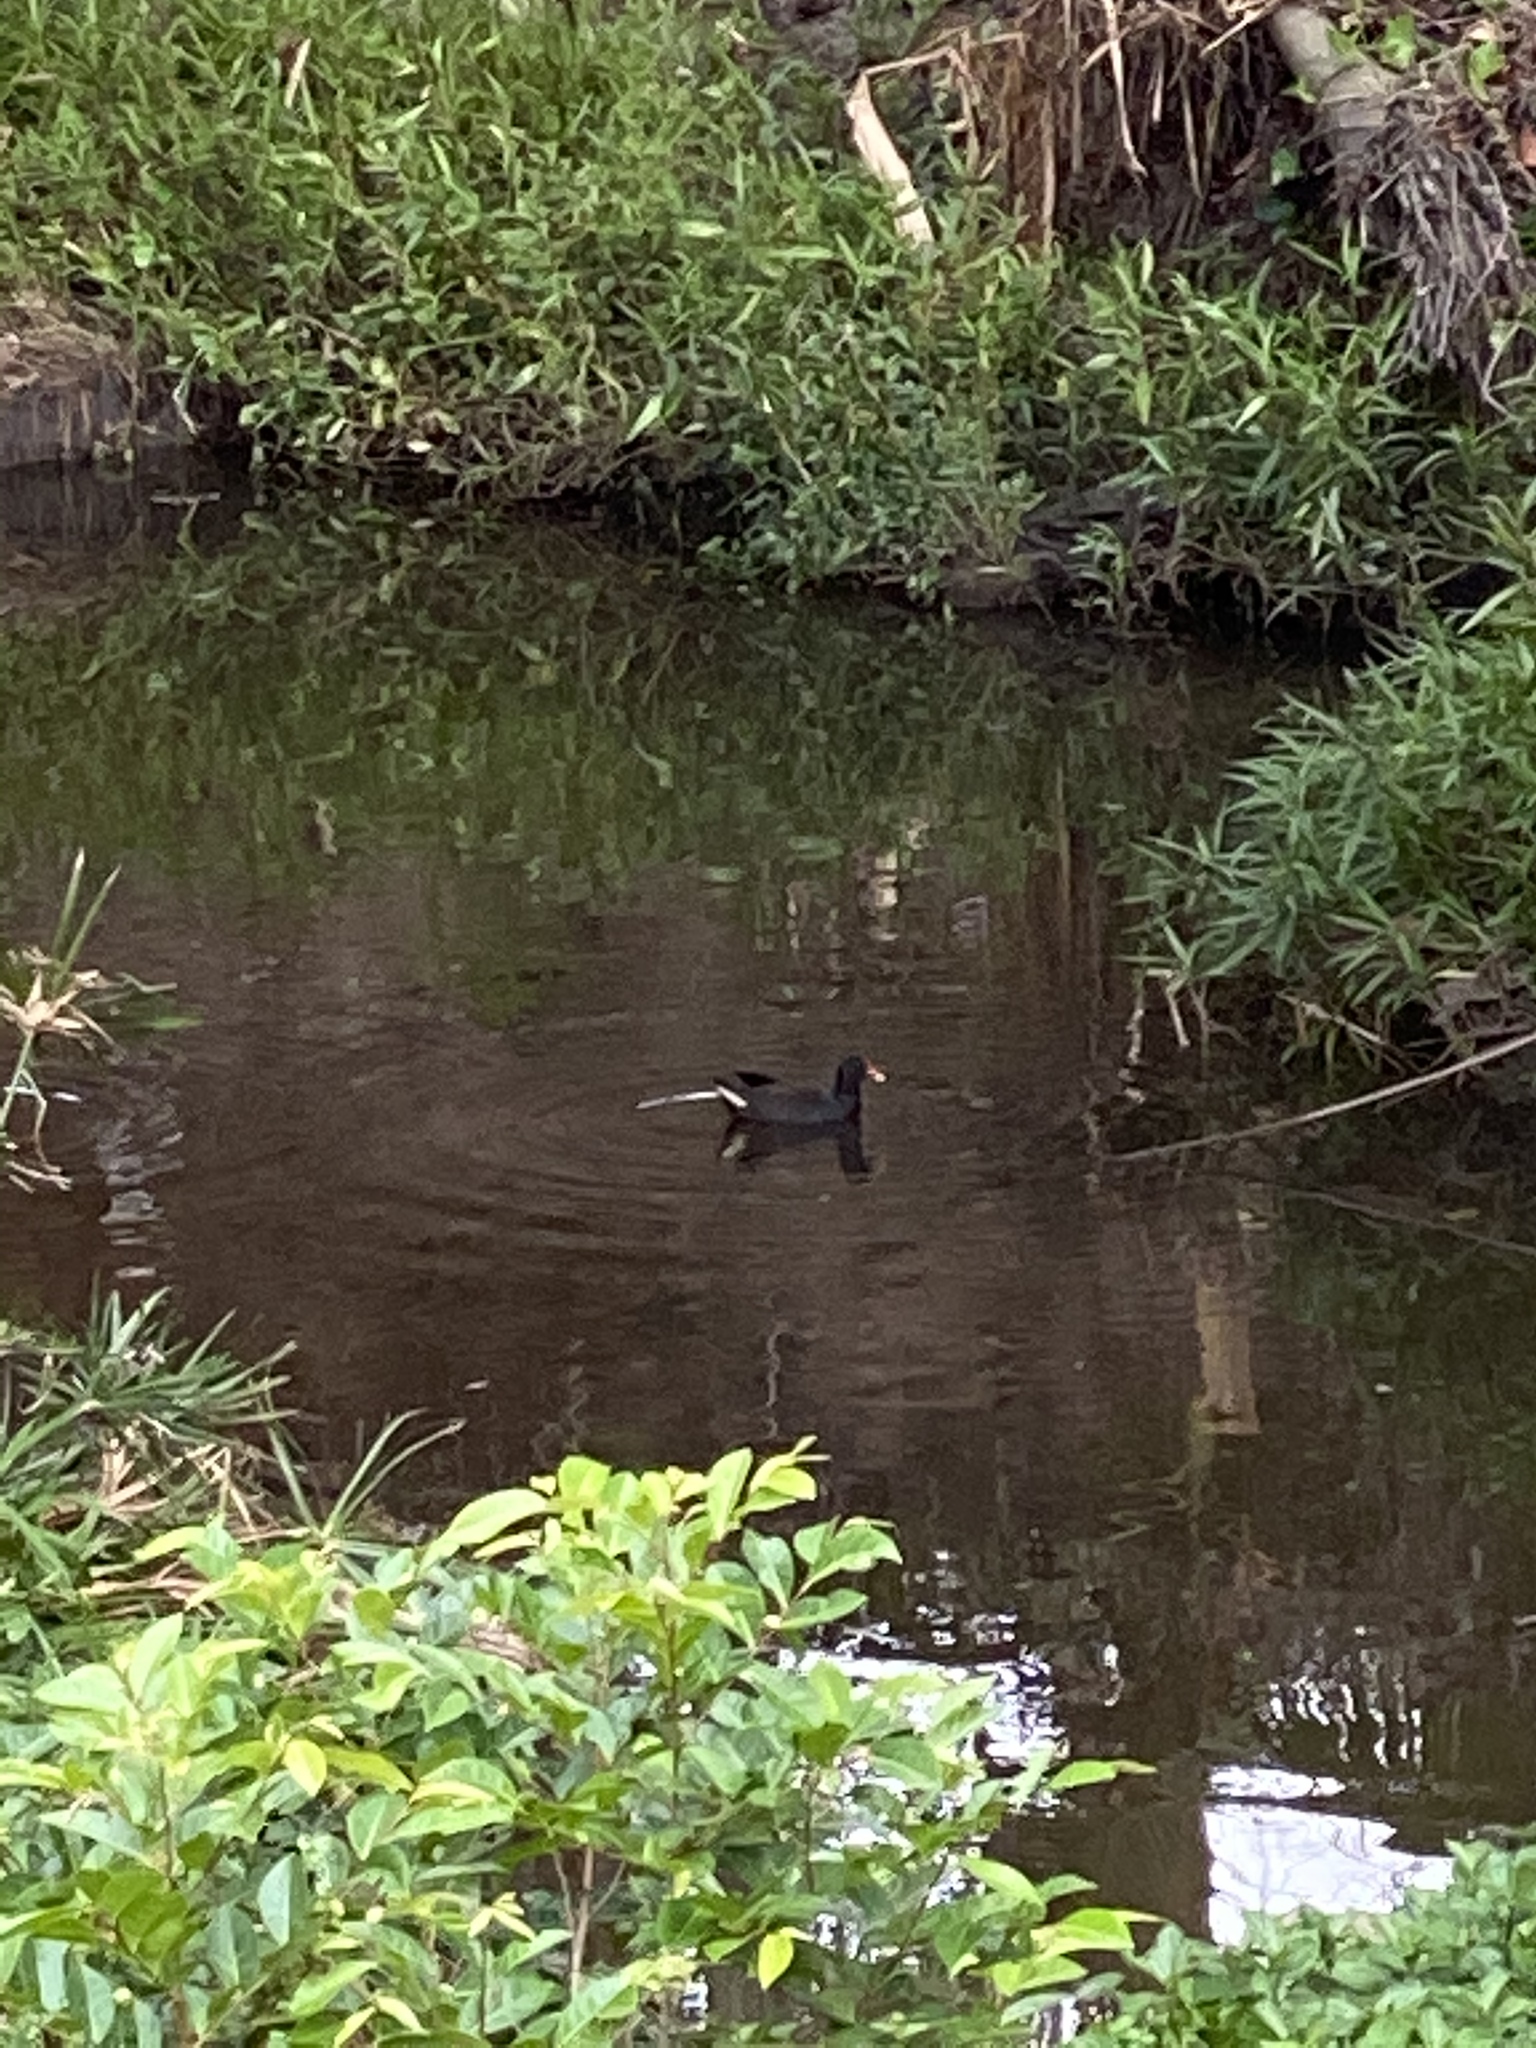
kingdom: Animalia
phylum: Chordata
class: Aves
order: Gruiformes
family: Rallidae
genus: Gallinula
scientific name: Gallinula tenebrosa
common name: Dusky moorhen
